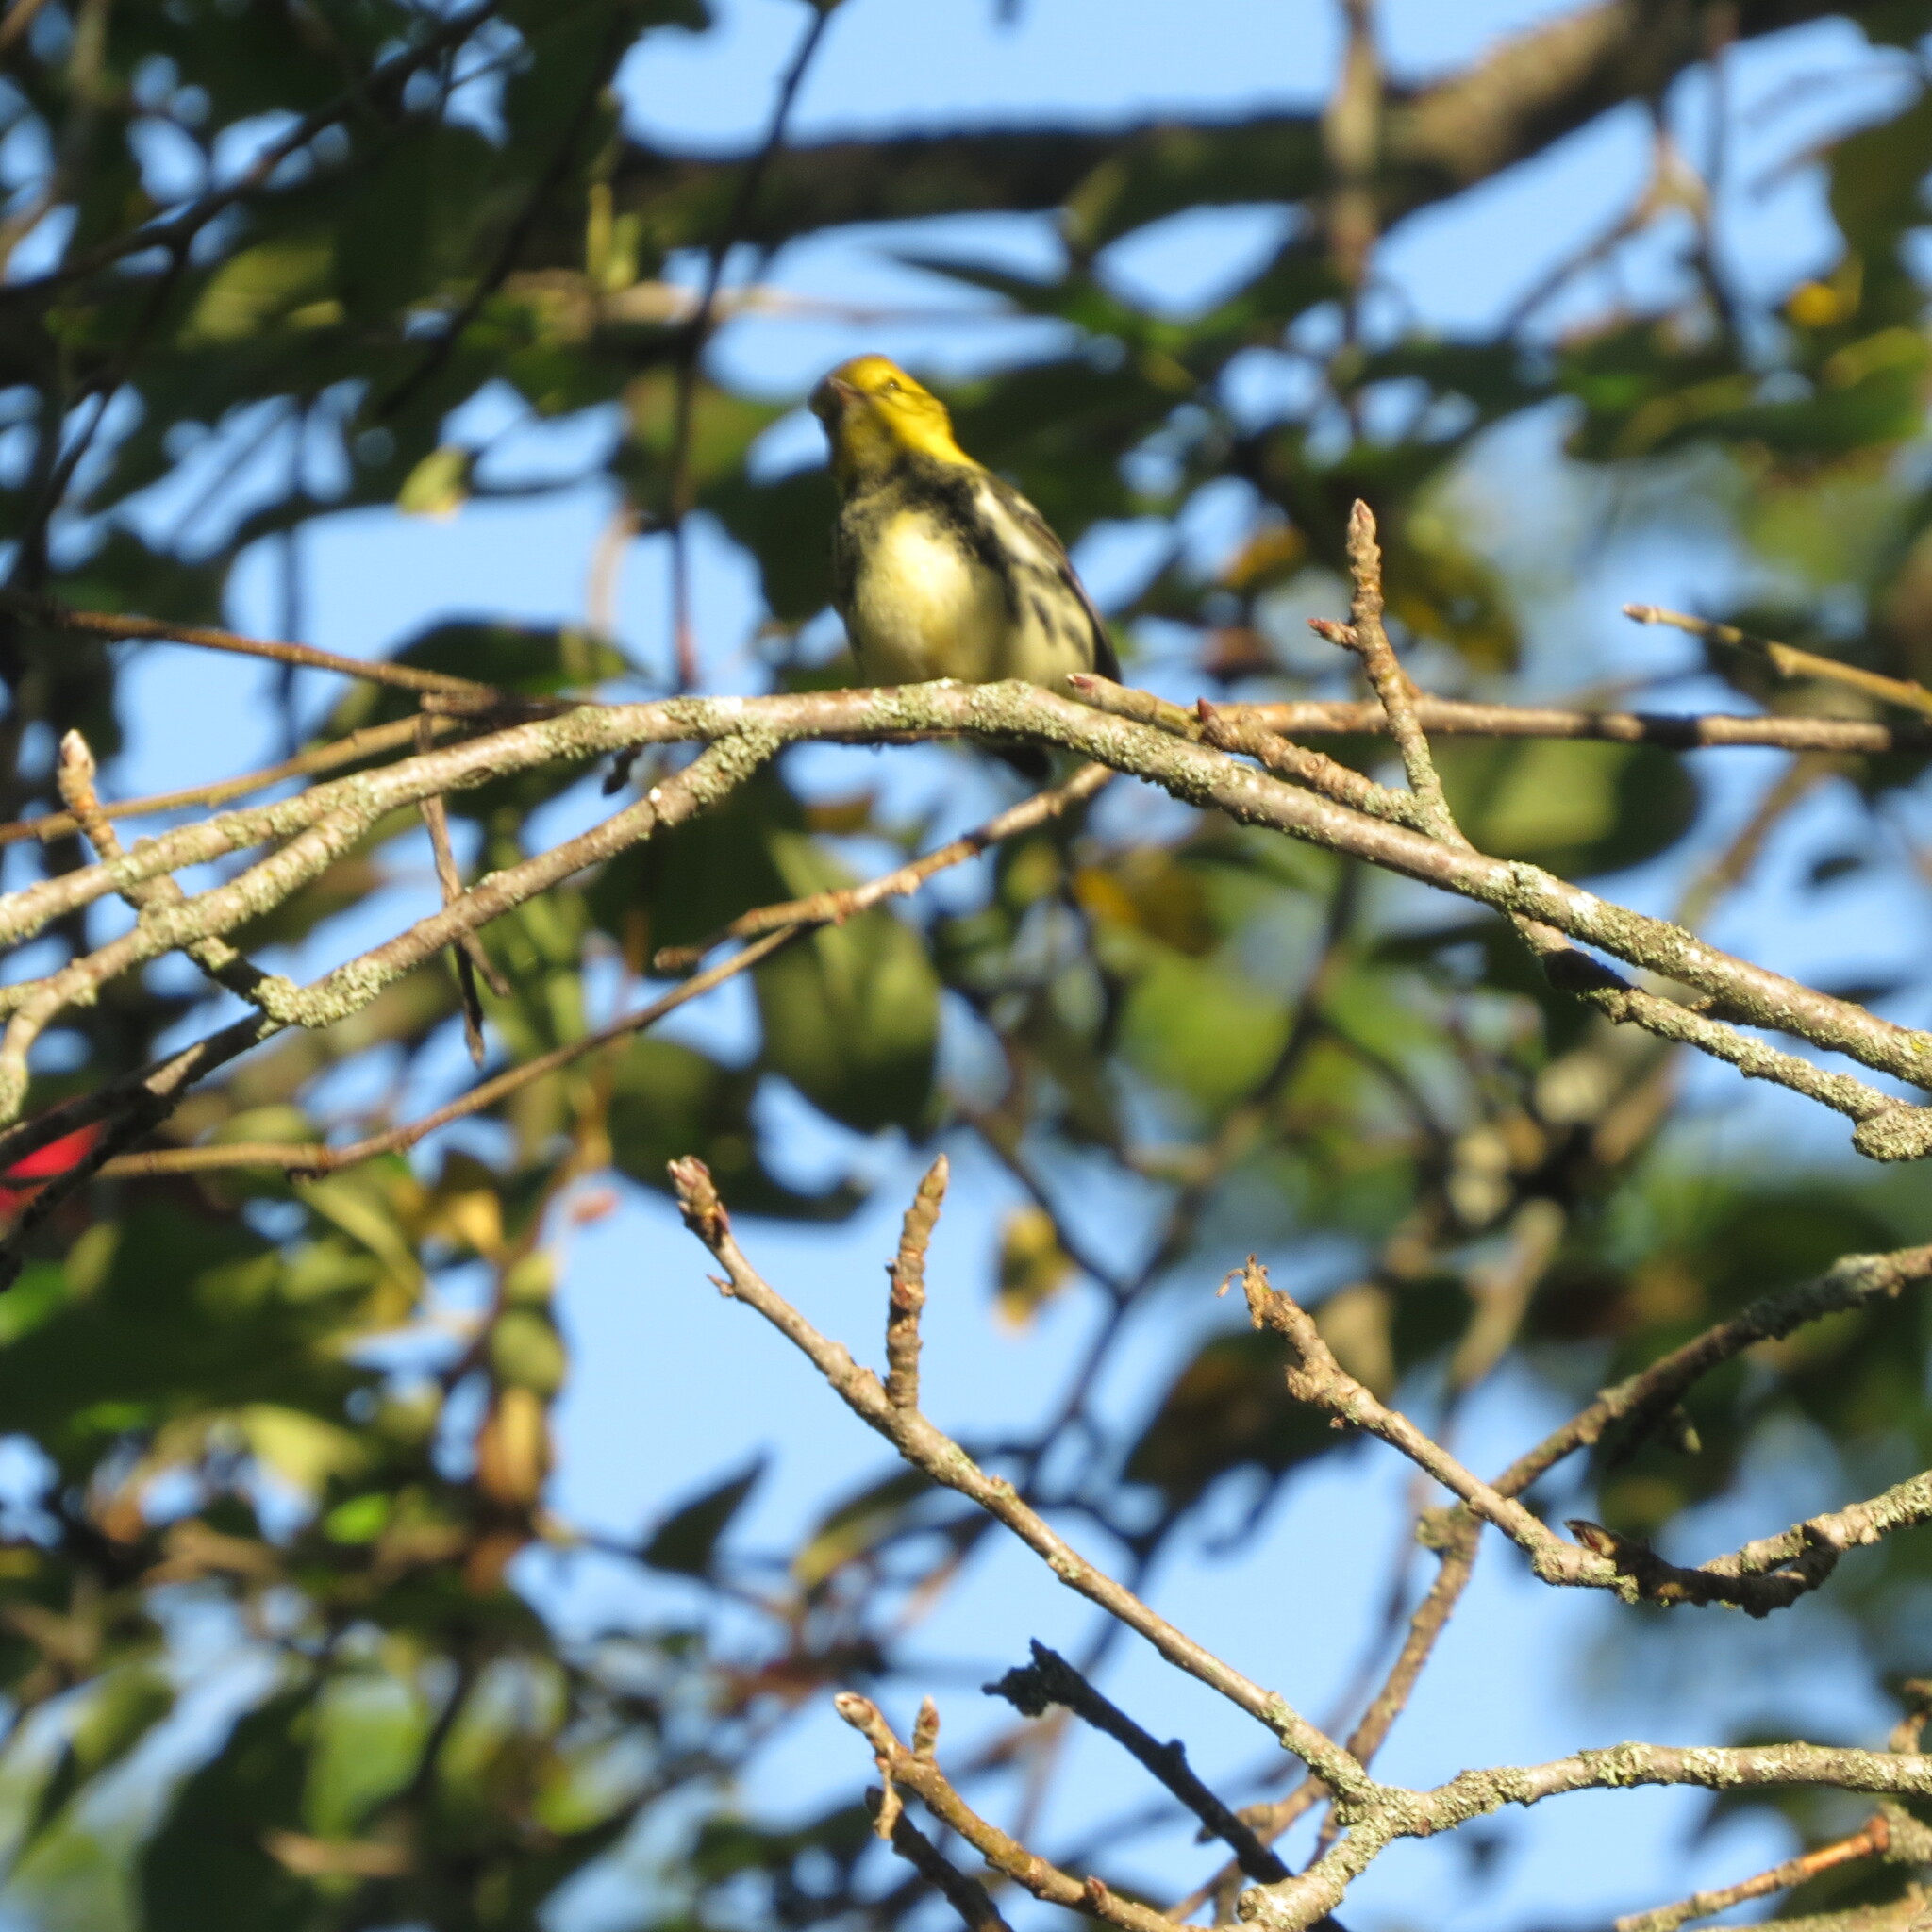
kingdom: Animalia
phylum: Chordata
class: Aves
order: Passeriformes
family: Parulidae
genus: Setophaga
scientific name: Setophaga virens
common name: Black-throated green warbler
